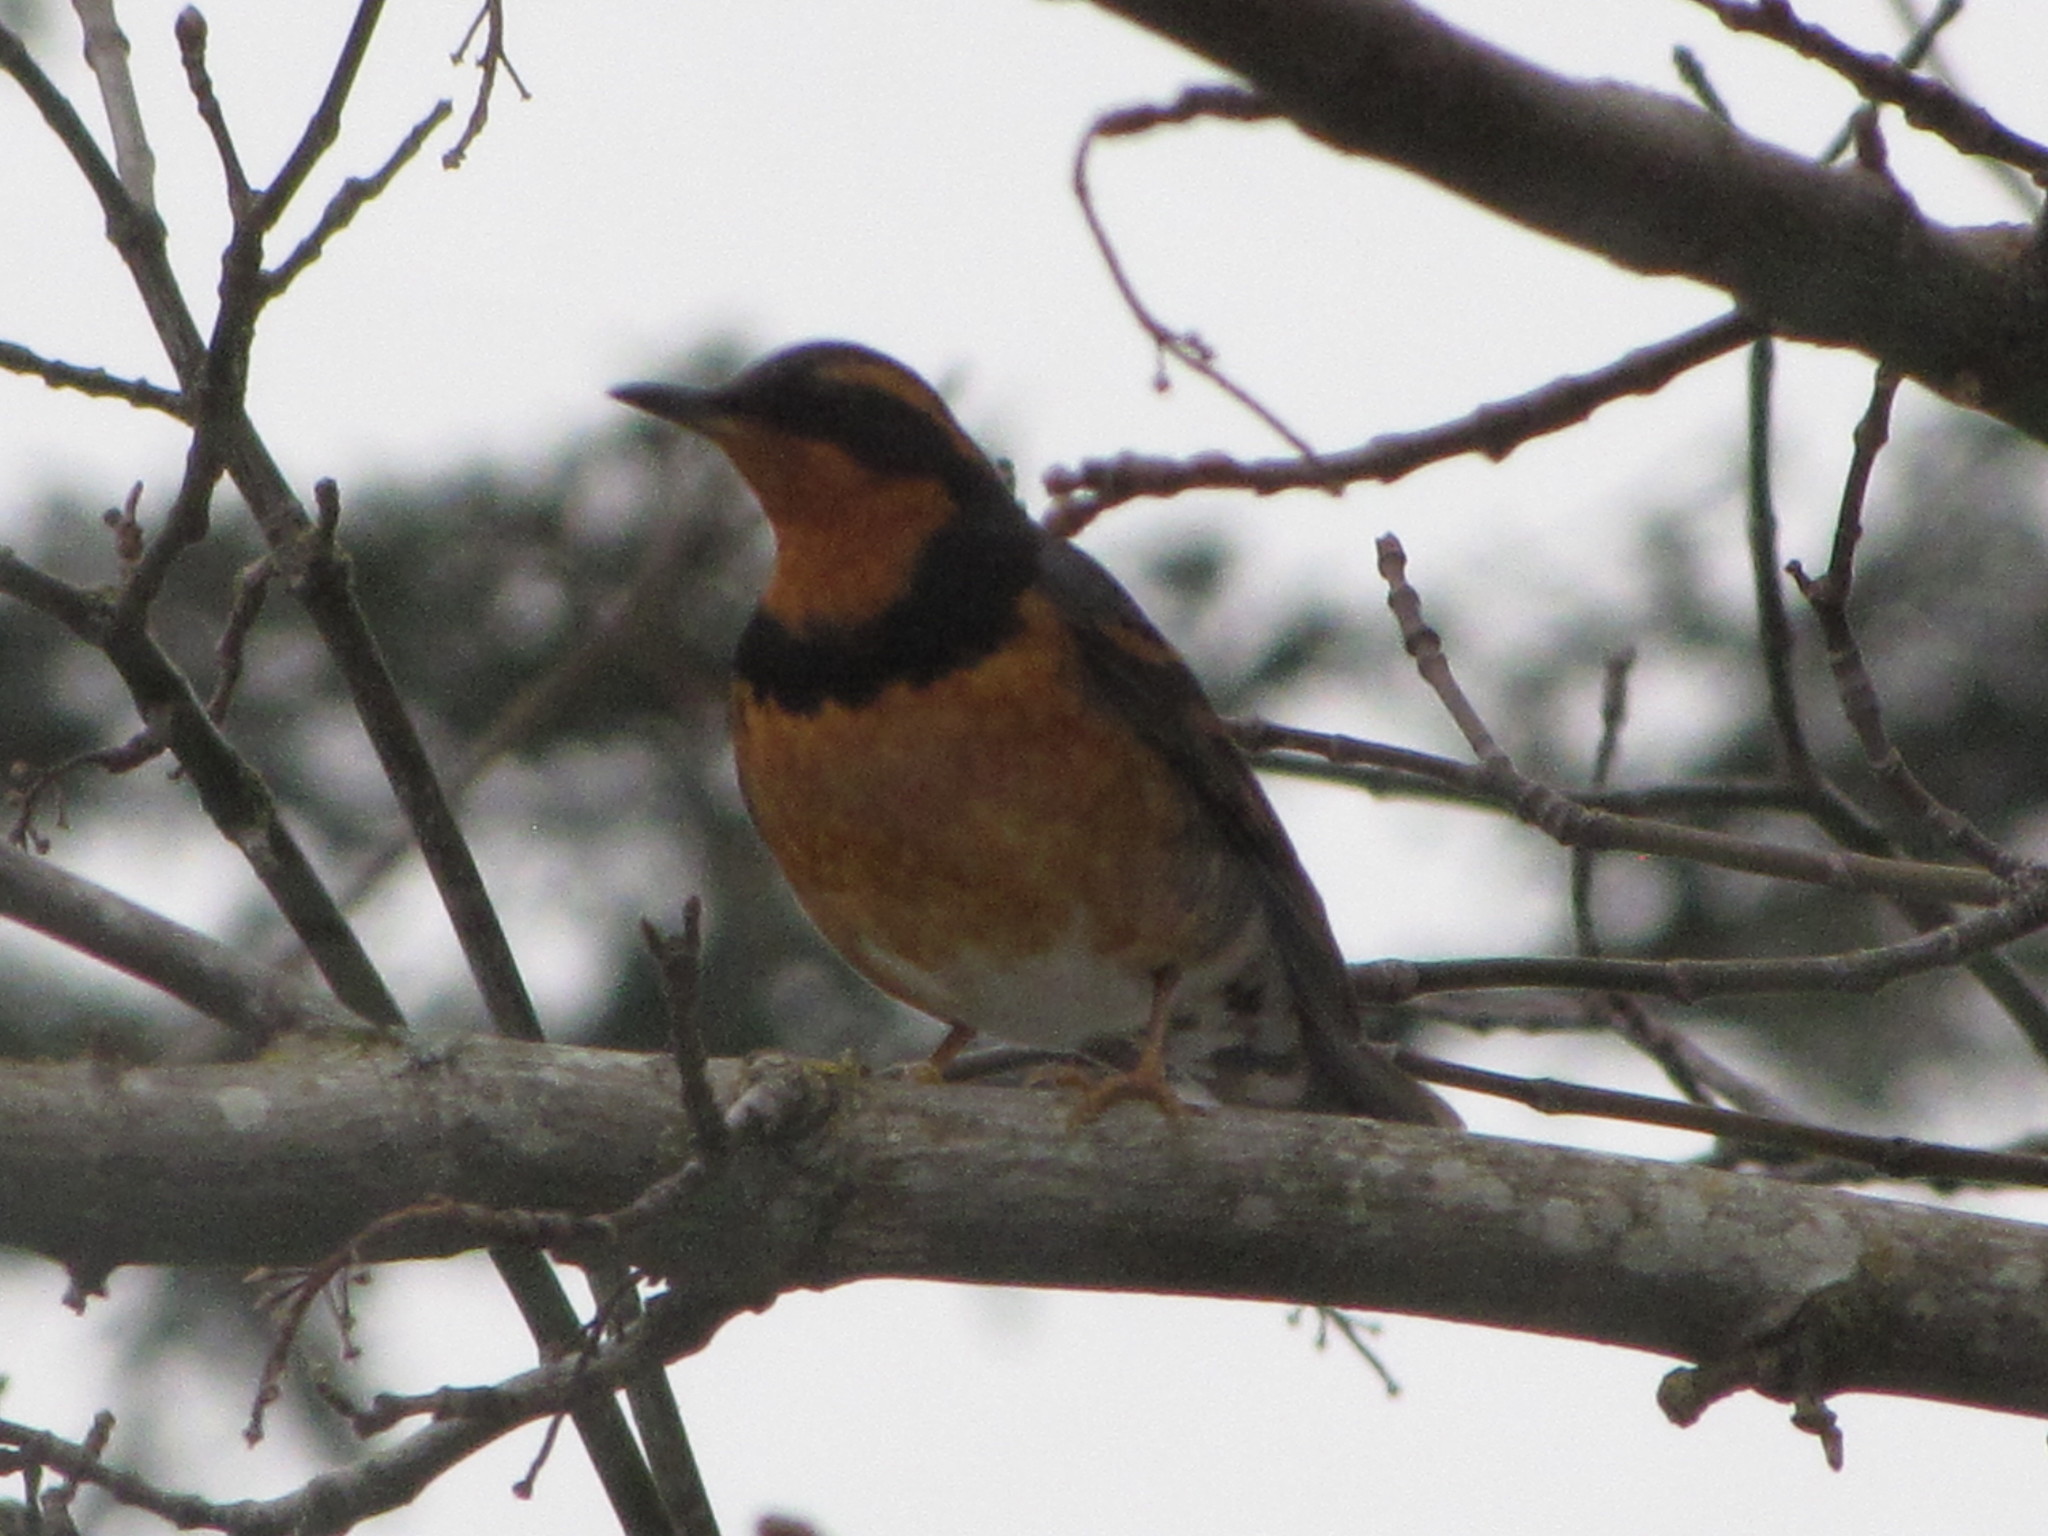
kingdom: Animalia
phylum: Chordata
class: Aves
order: Passeriformes
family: Turdidae
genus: Ixoreus
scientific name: Ixoreus naevius
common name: Varied thrush
